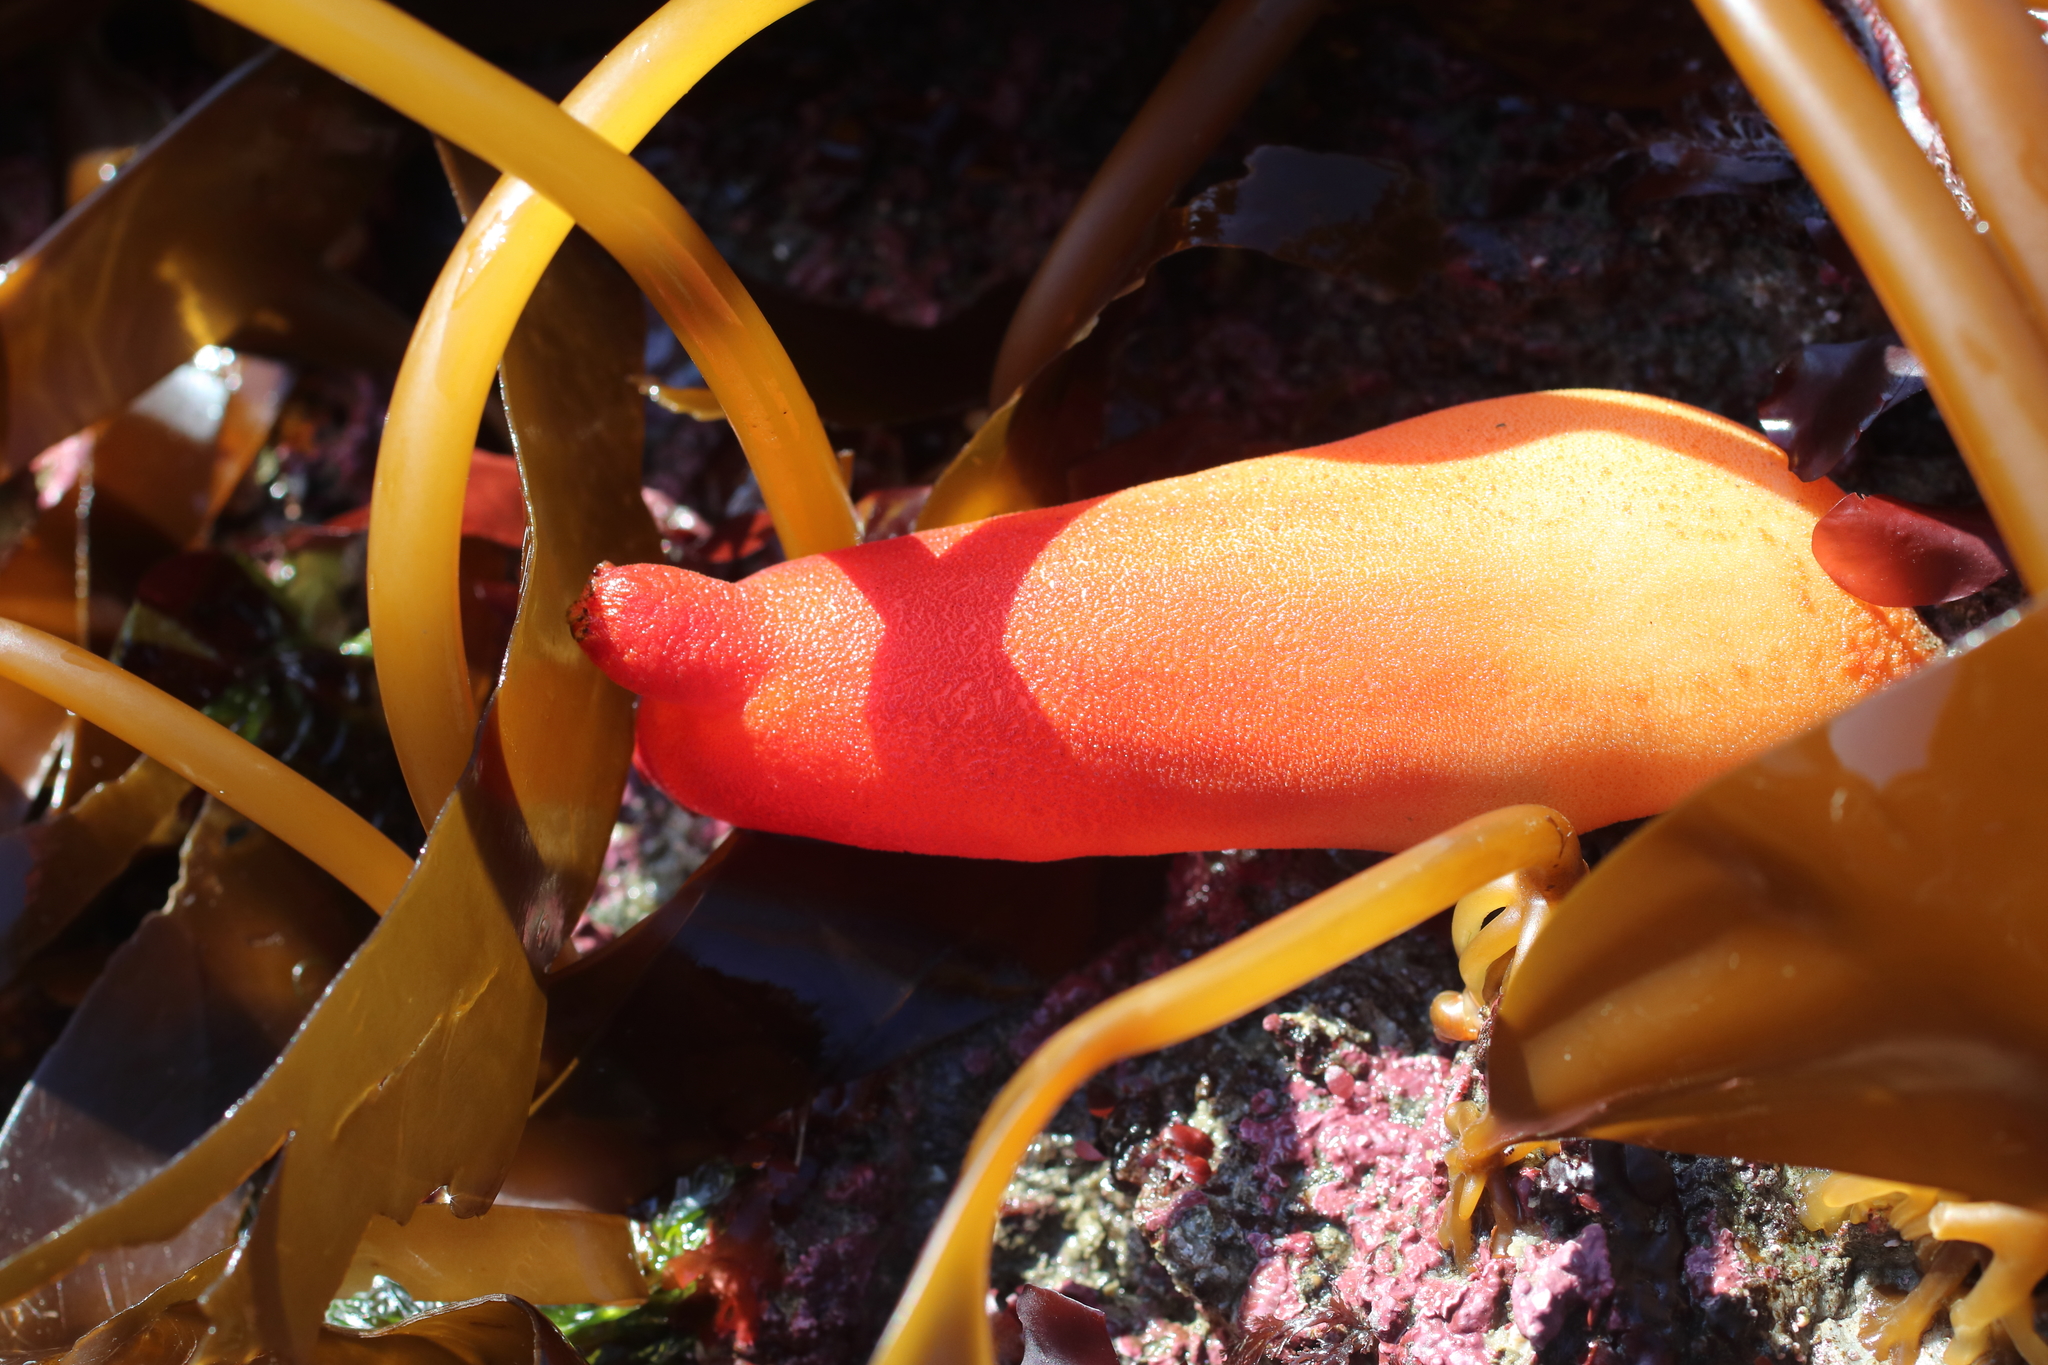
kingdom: Animalia
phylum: Chordata
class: Ascidiacea
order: Stolidobranchia
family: Pyuridae
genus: Halocynthia
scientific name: Halocynthia aurantium
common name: Sea peach
